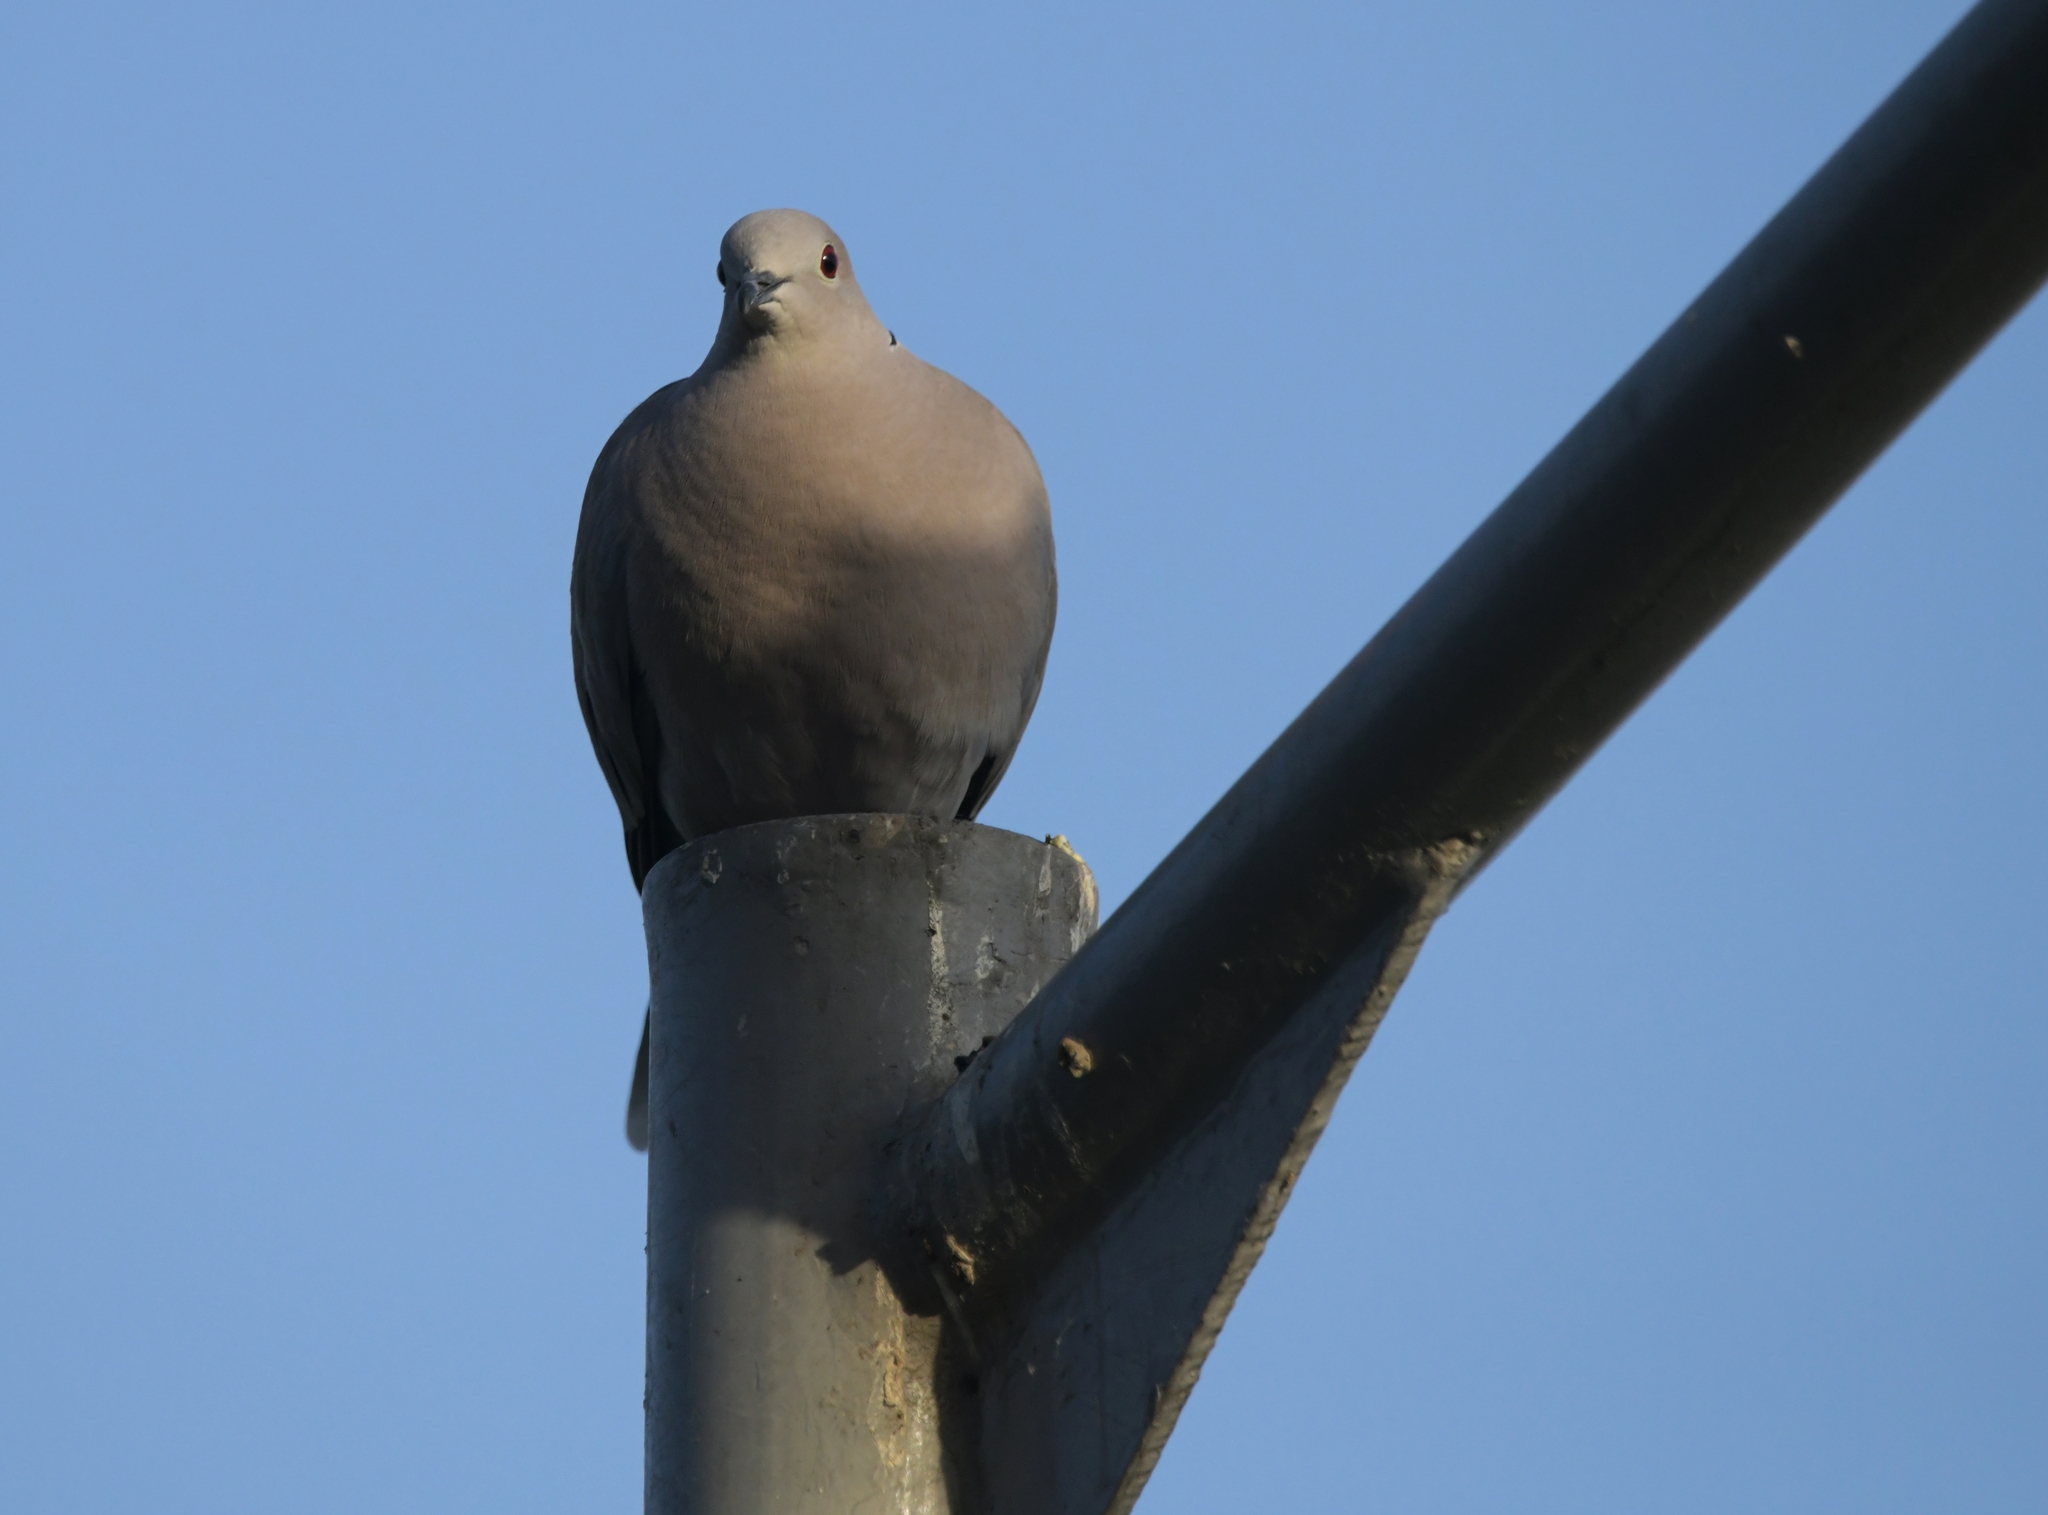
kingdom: Animalia
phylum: Chordata
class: Aves
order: Columbiformes
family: Columbidae
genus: Streptopelia
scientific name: Streptopelia decaocto
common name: Eurasian collared dove
